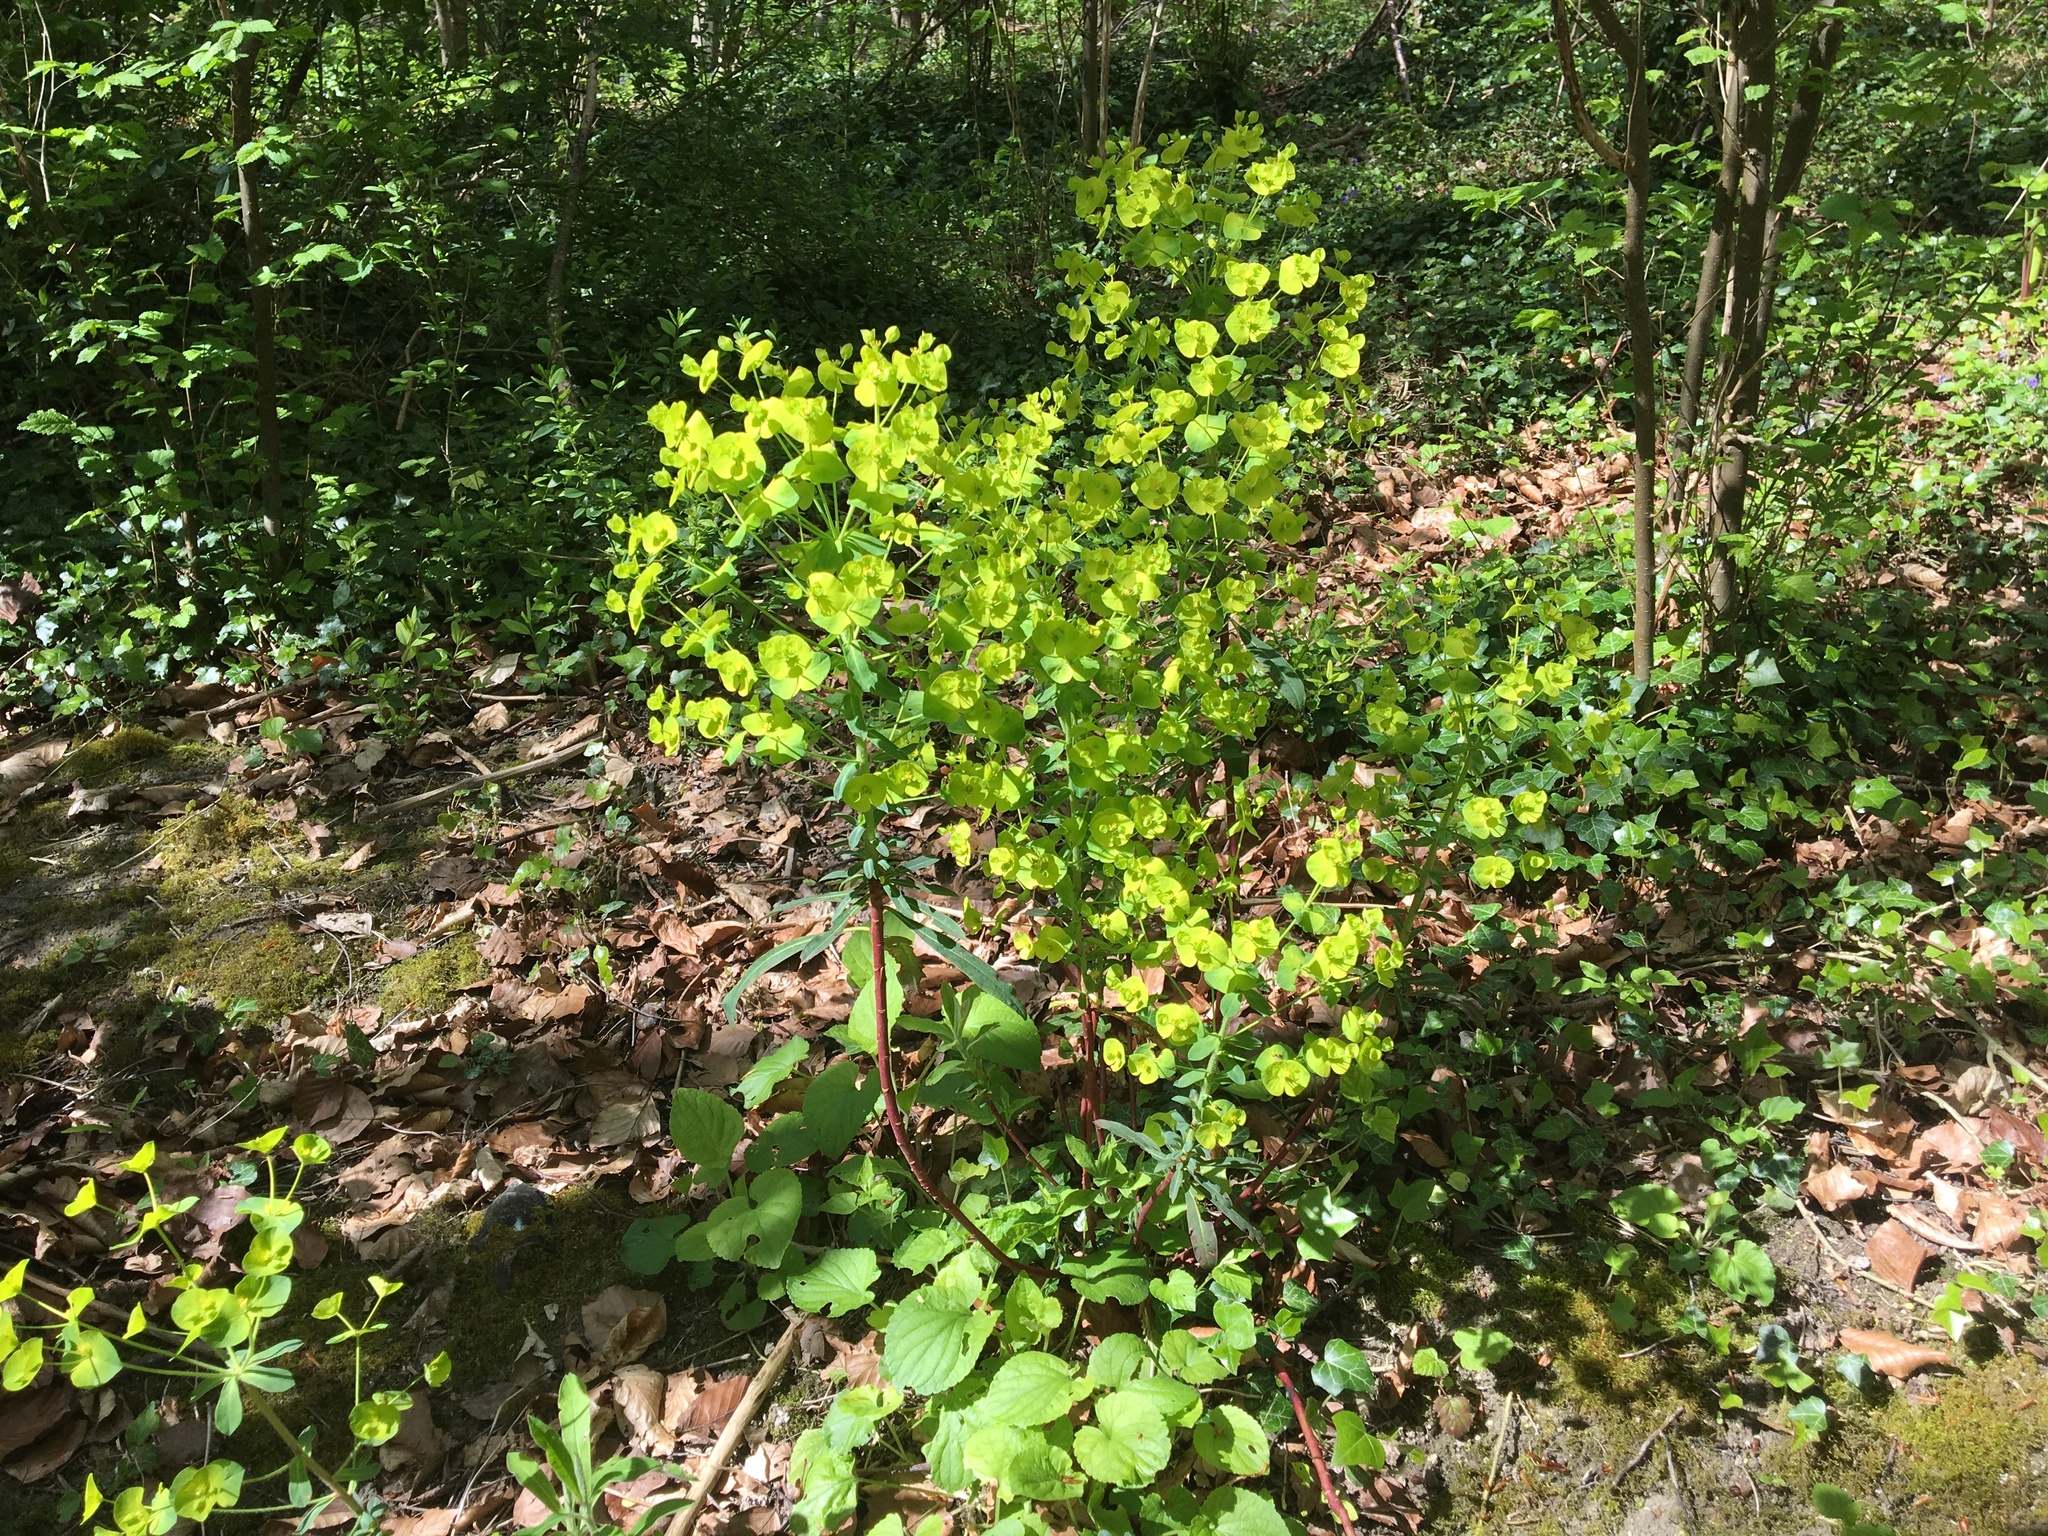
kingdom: Plantae
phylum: Tracheophyta
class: Magnoliopsida
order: Malpighiales
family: Euphorbiaceae
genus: Euphorbia
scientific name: Euphorbia amygdaloides
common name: Wood spurge
